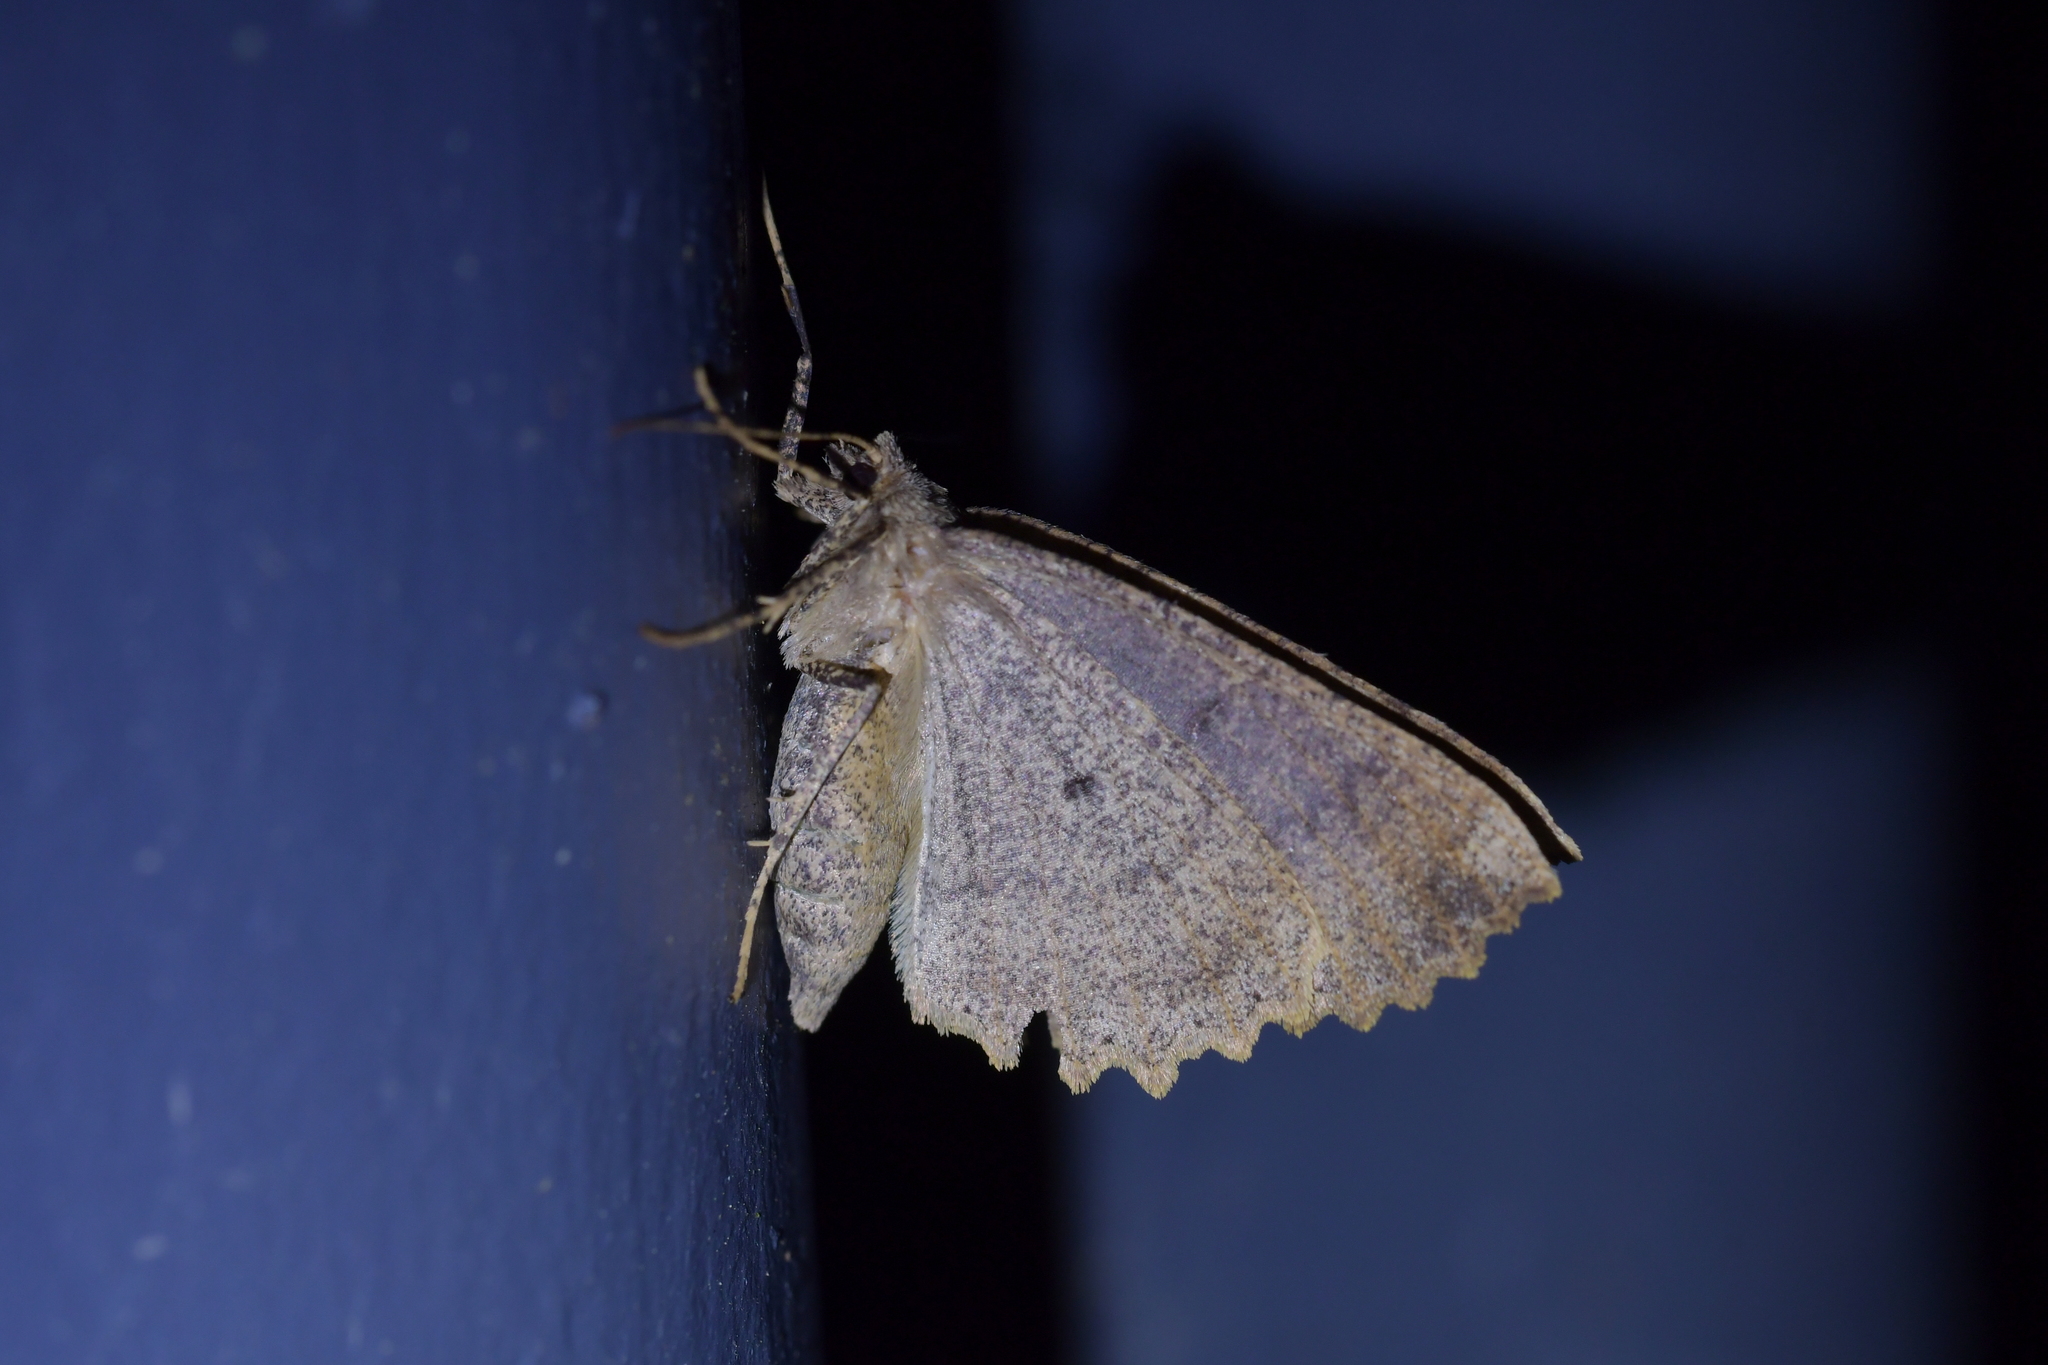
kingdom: Animalia
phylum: Arthropoda
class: Insecta
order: Lepidoptera
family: Geometridae
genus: Cleora
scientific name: Cleora scriptaria
